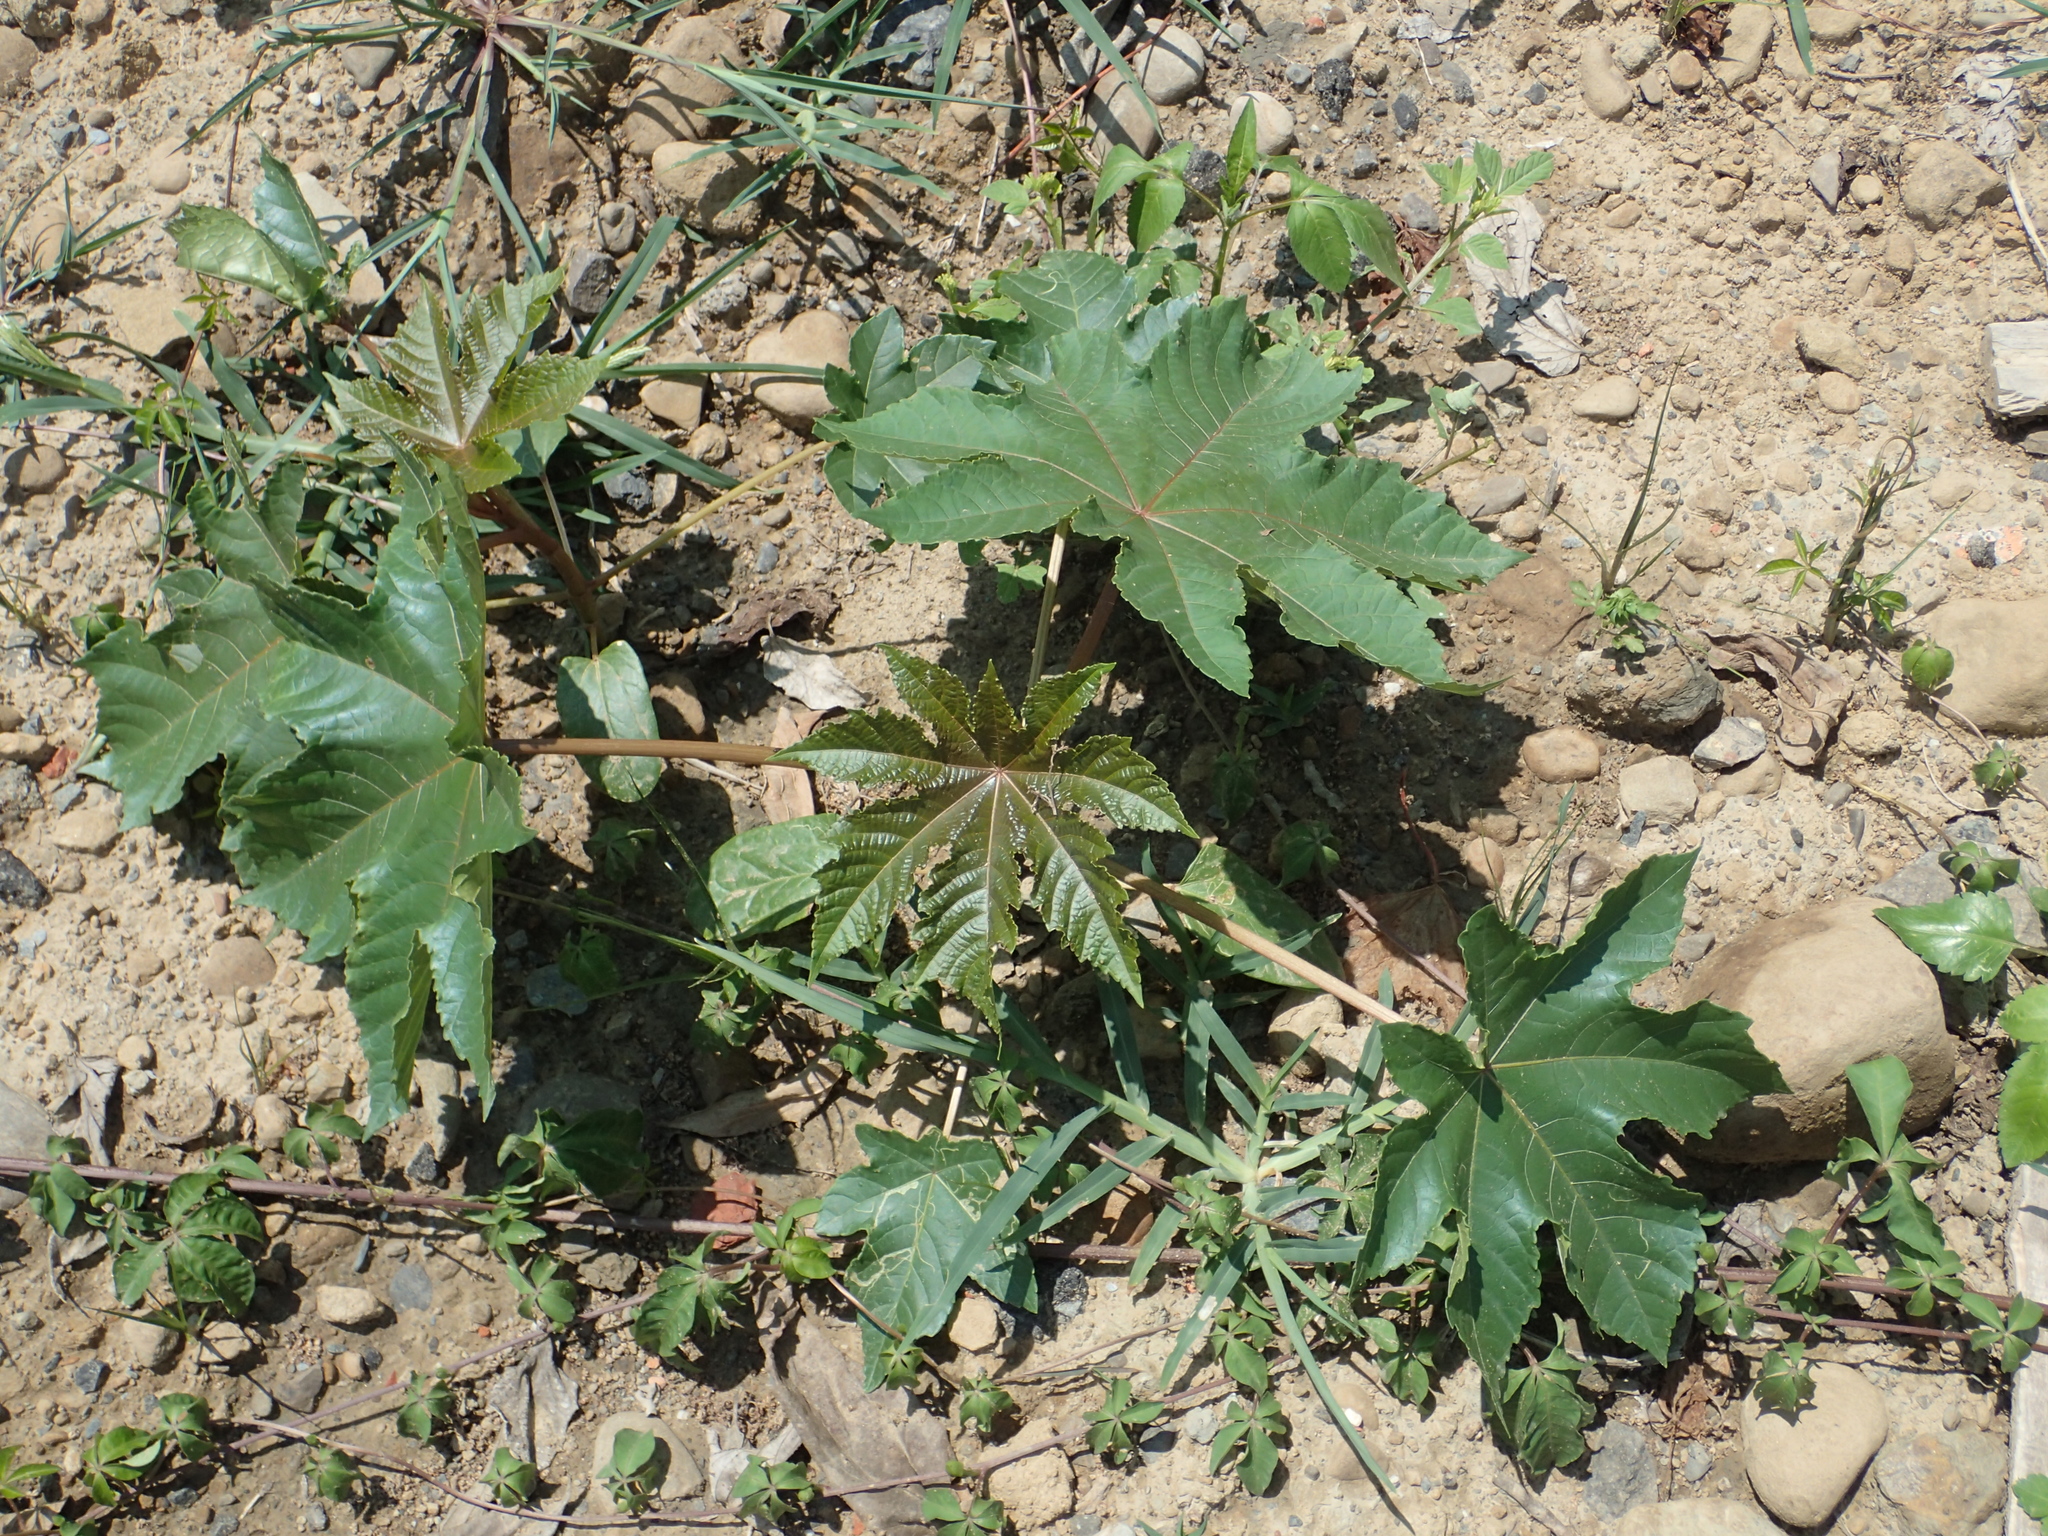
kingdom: Plantae
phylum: Tracheophyta
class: Magnoliopsida
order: Malpighiales
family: Euphorbiaceae
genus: Ricinus
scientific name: Ricinus communis
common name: Castor-oil-plant
